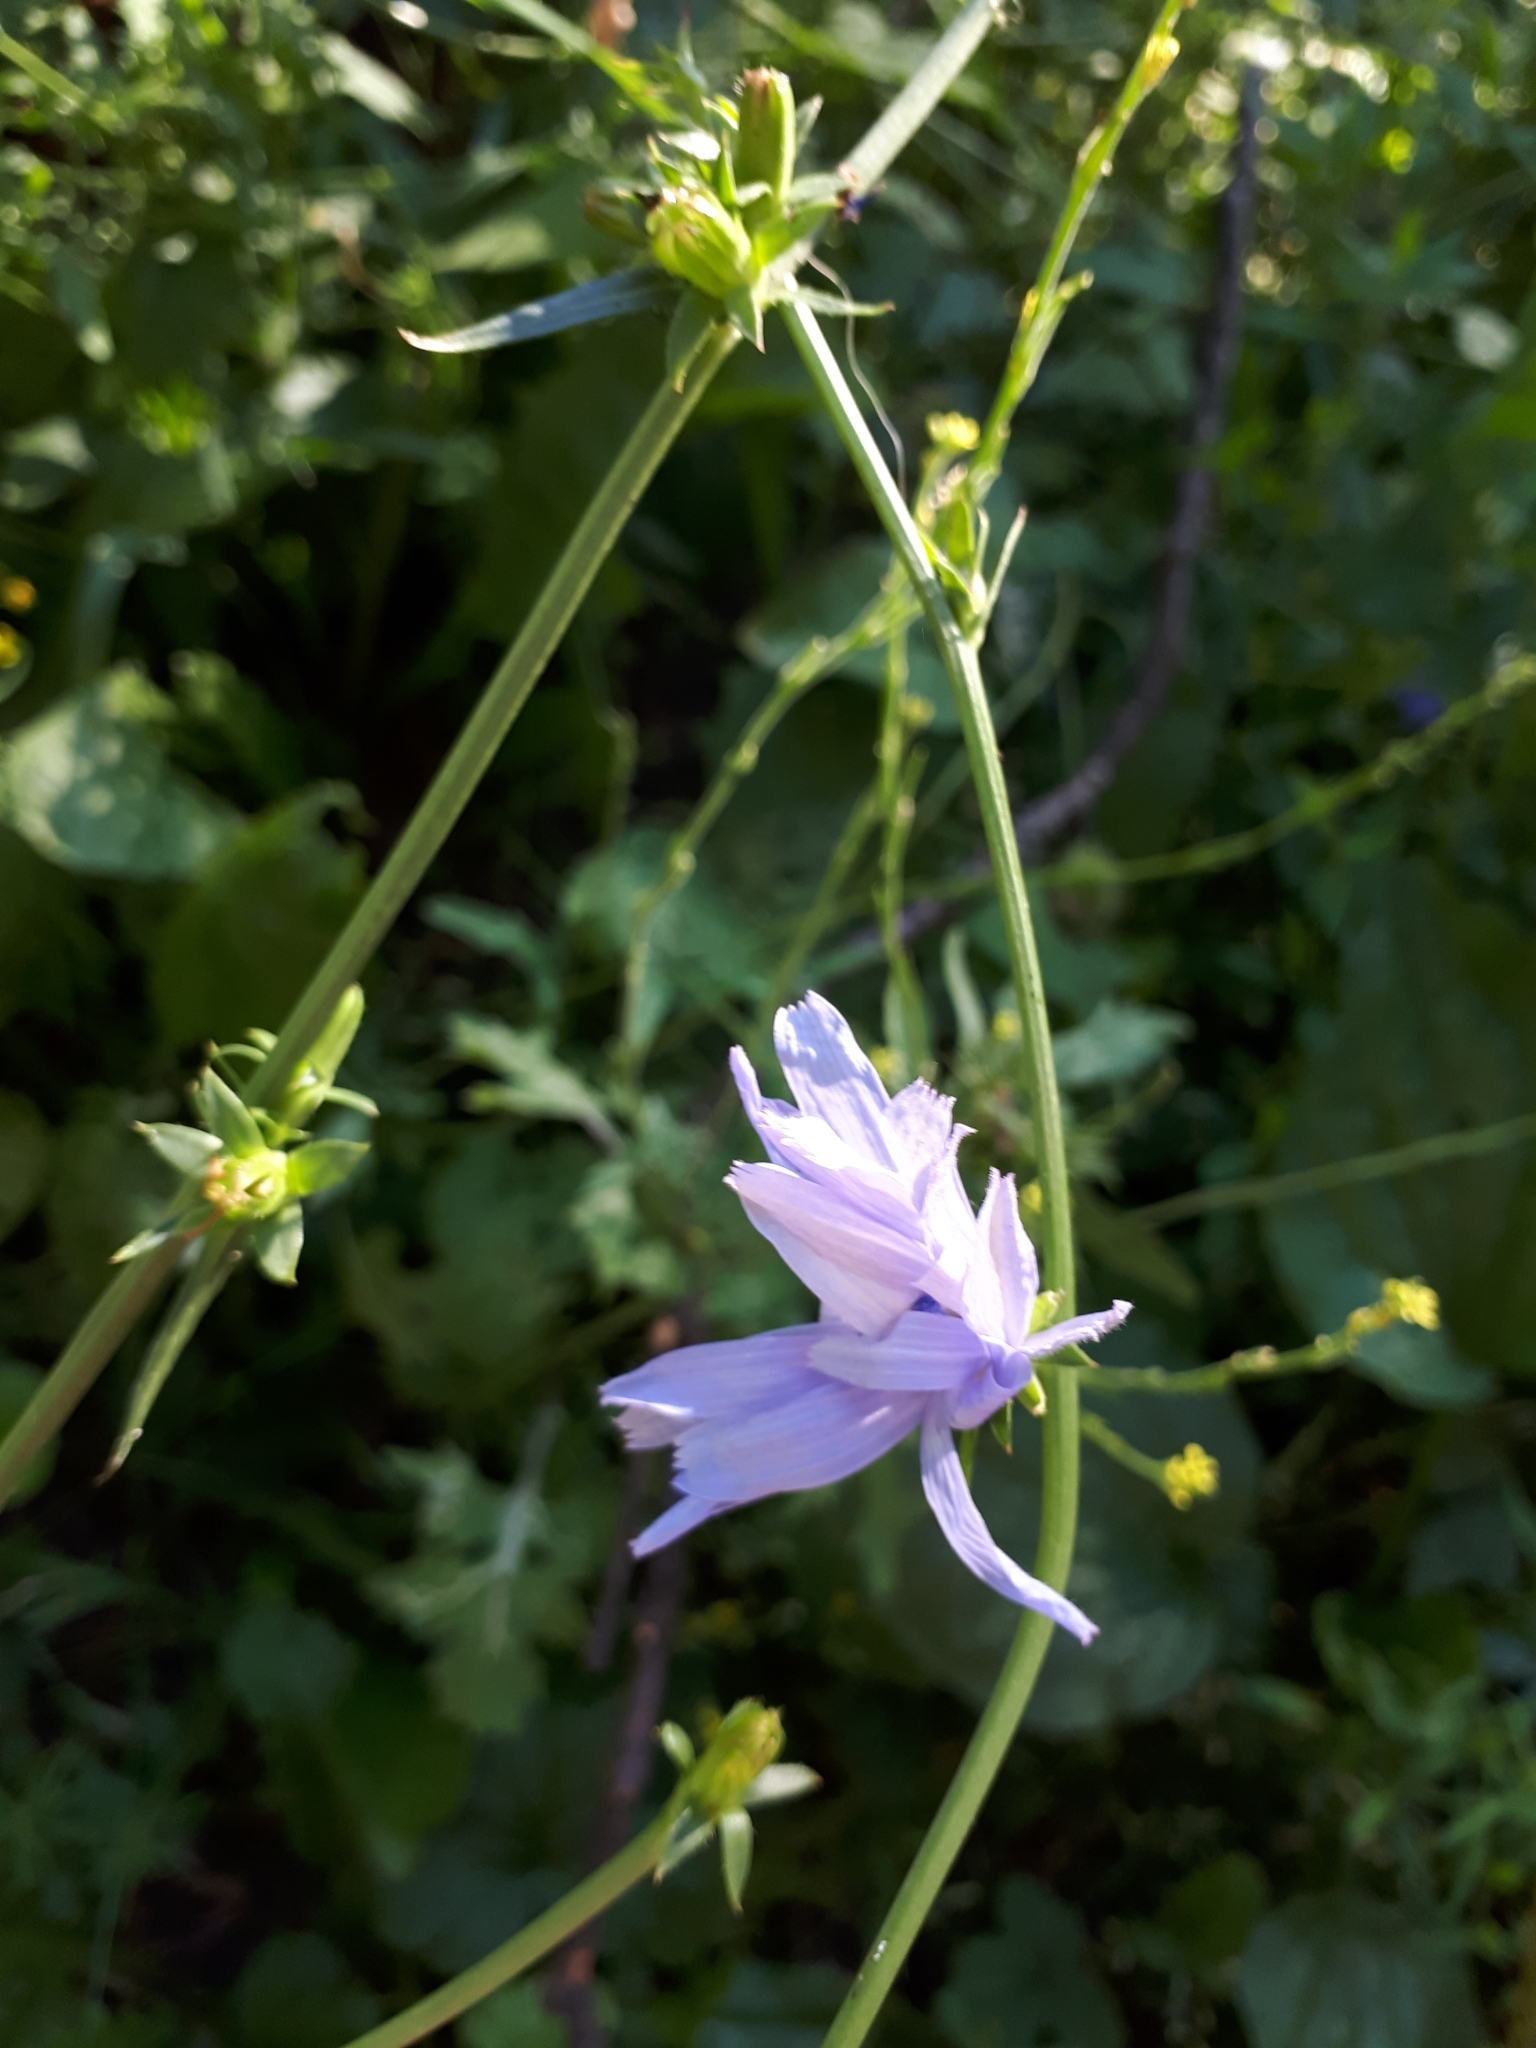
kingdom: Plantae
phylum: Tracheophyta
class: Magnoliopsida
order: Asterales
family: Asteraceae
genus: Cichorium
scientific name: Cichorium intybus
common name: Chicory
